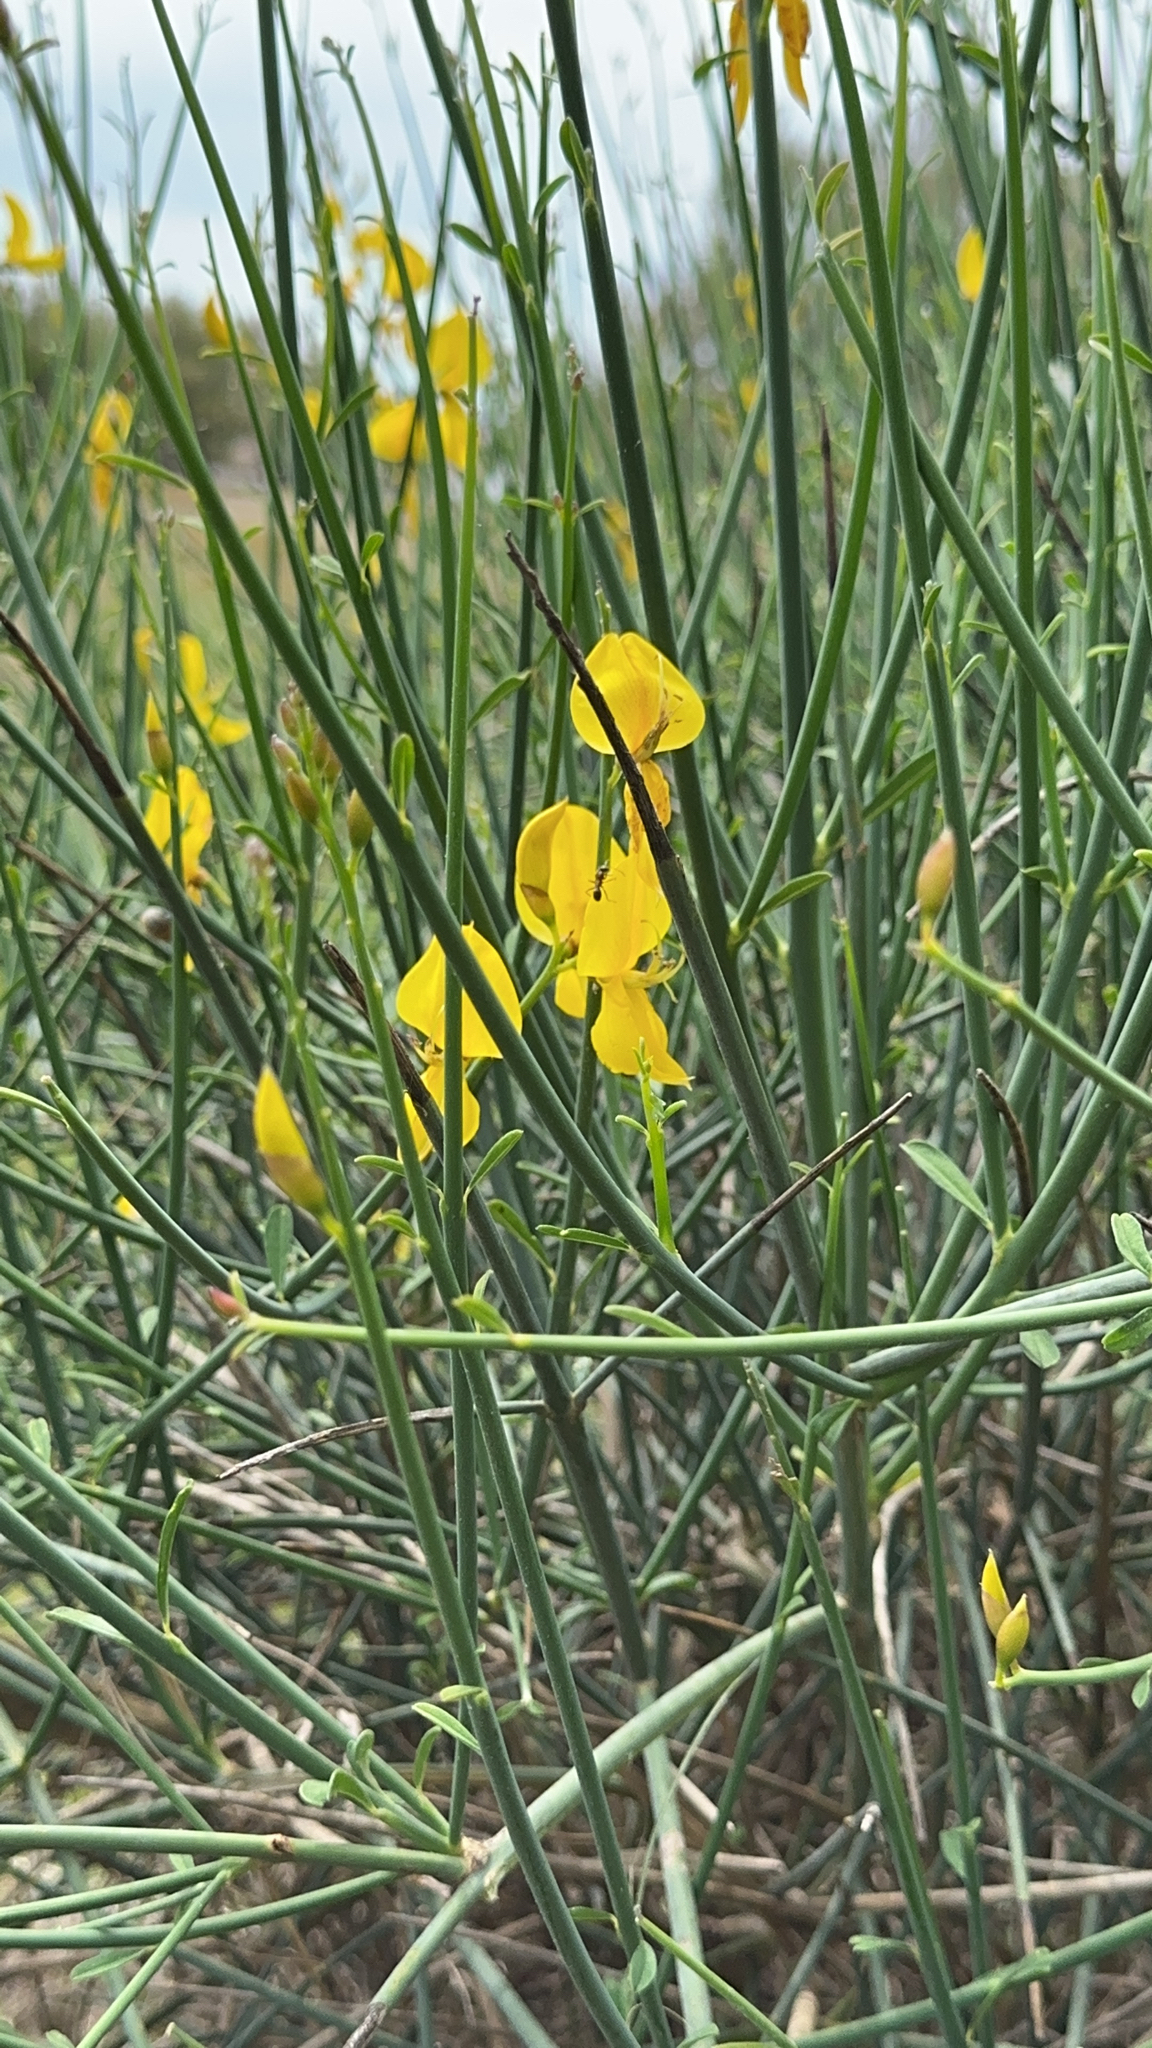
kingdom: Plantae
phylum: Tracheophyta
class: Magnoliopsida
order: Fabales
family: Fabaceae
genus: Spartium
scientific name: Spartium junceum
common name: Spanish broom
